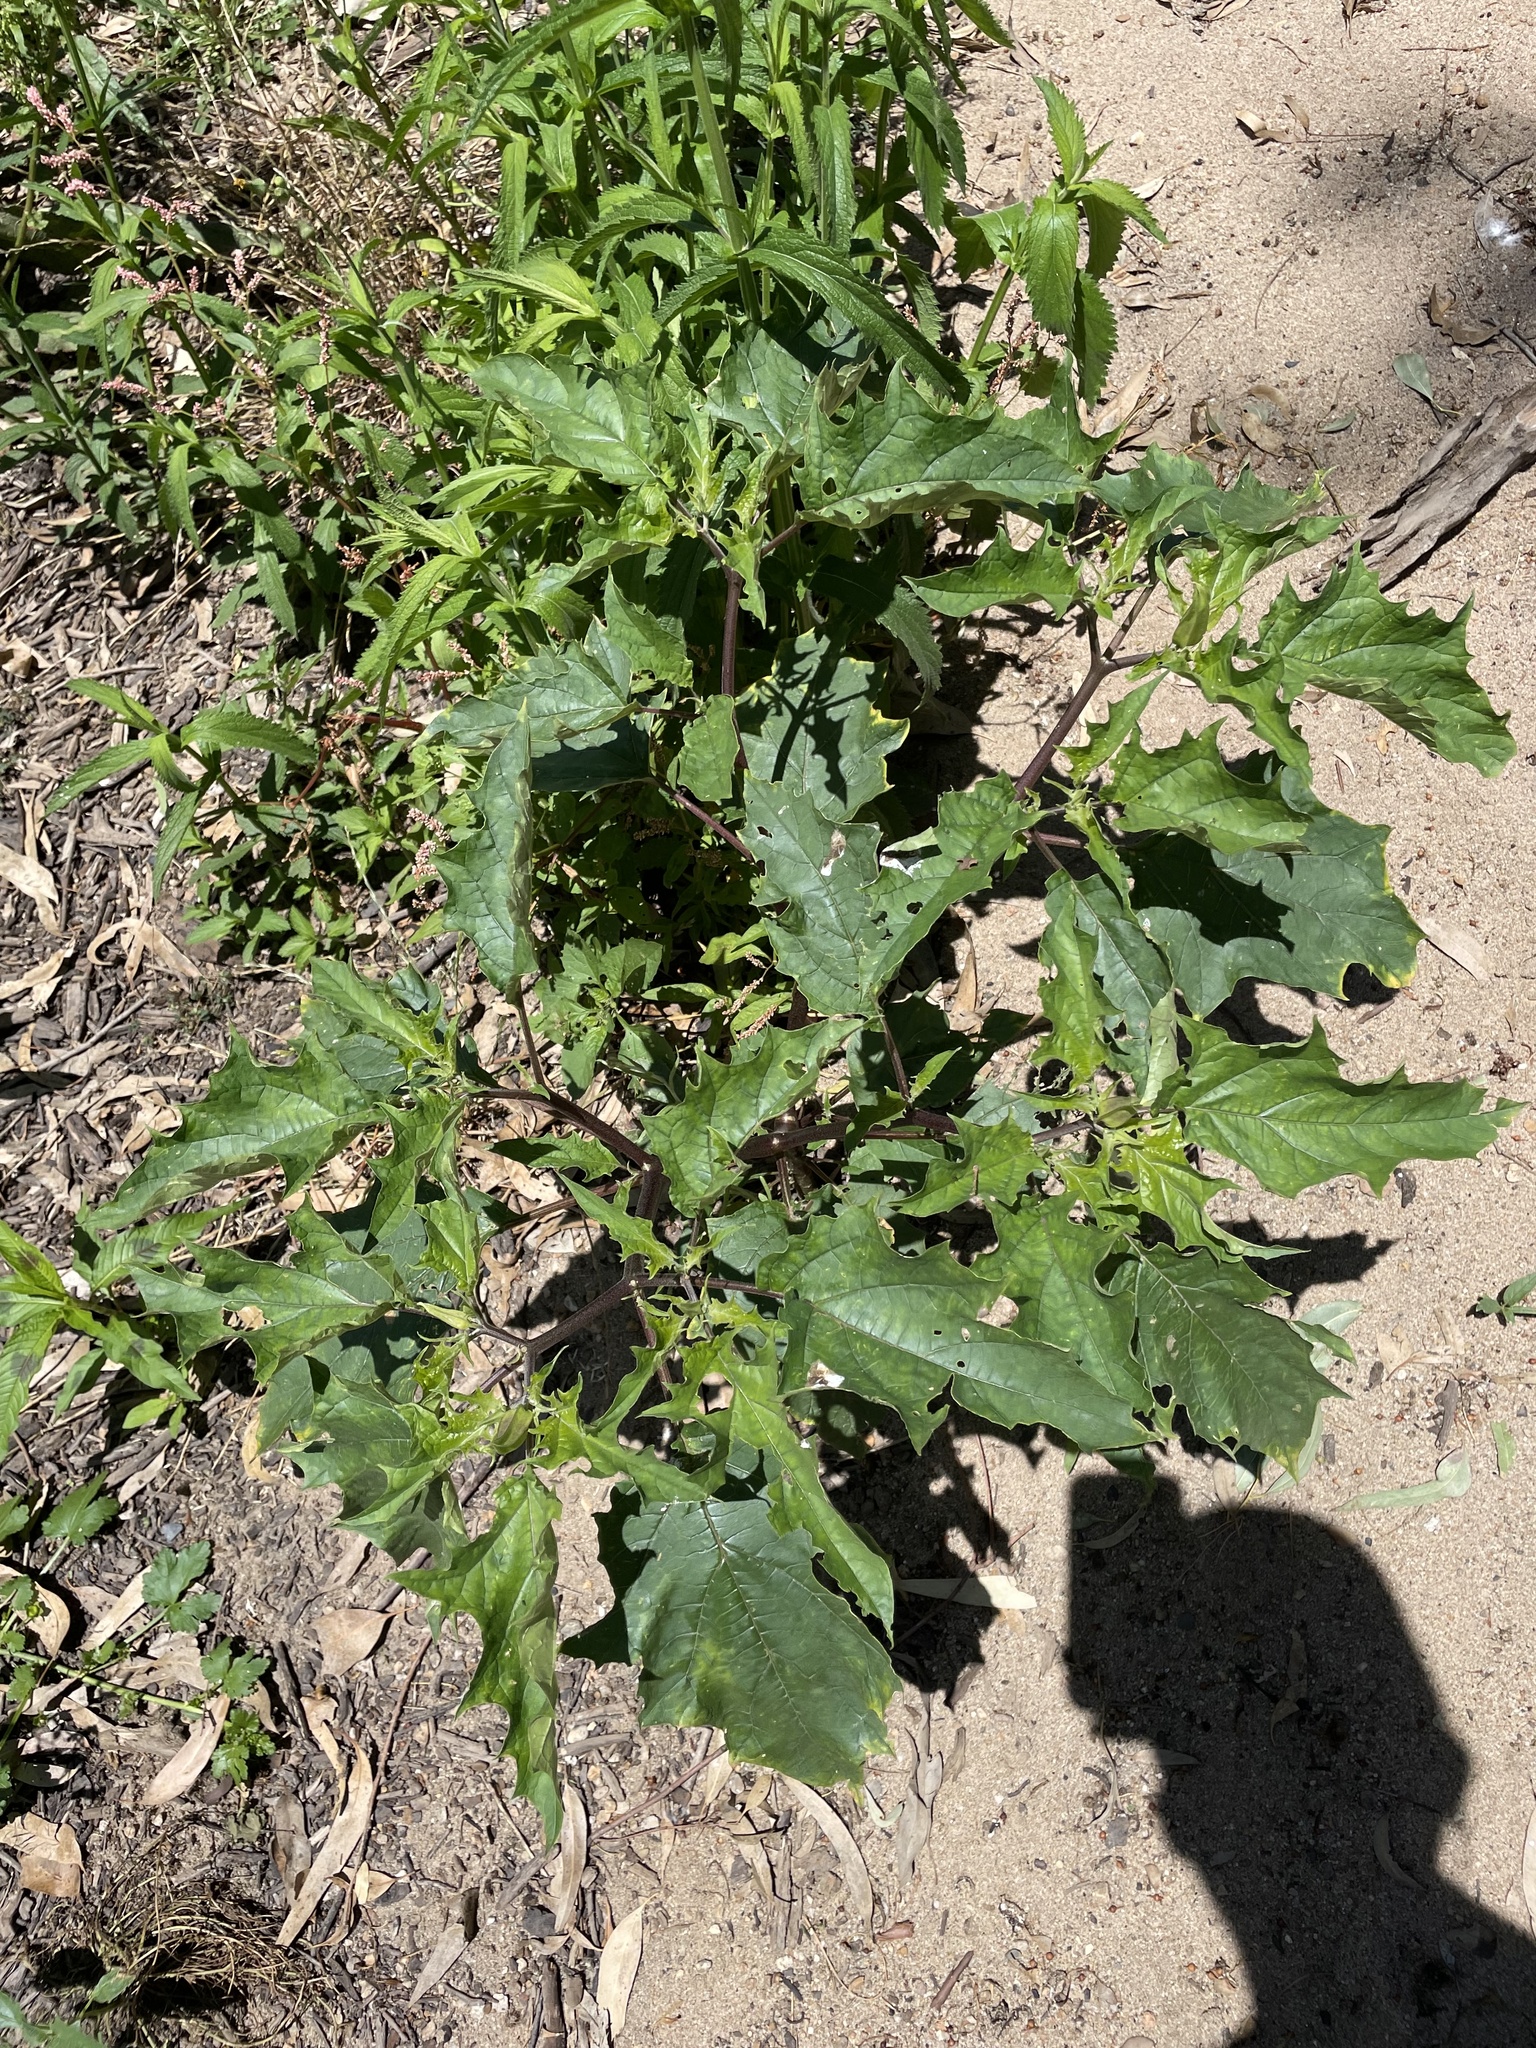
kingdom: Plantae
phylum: Tracheophyta
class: Magnoliopsida
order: Solanales
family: Solanaceae
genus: Datura
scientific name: Datura stramonium
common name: Thorn-apple
